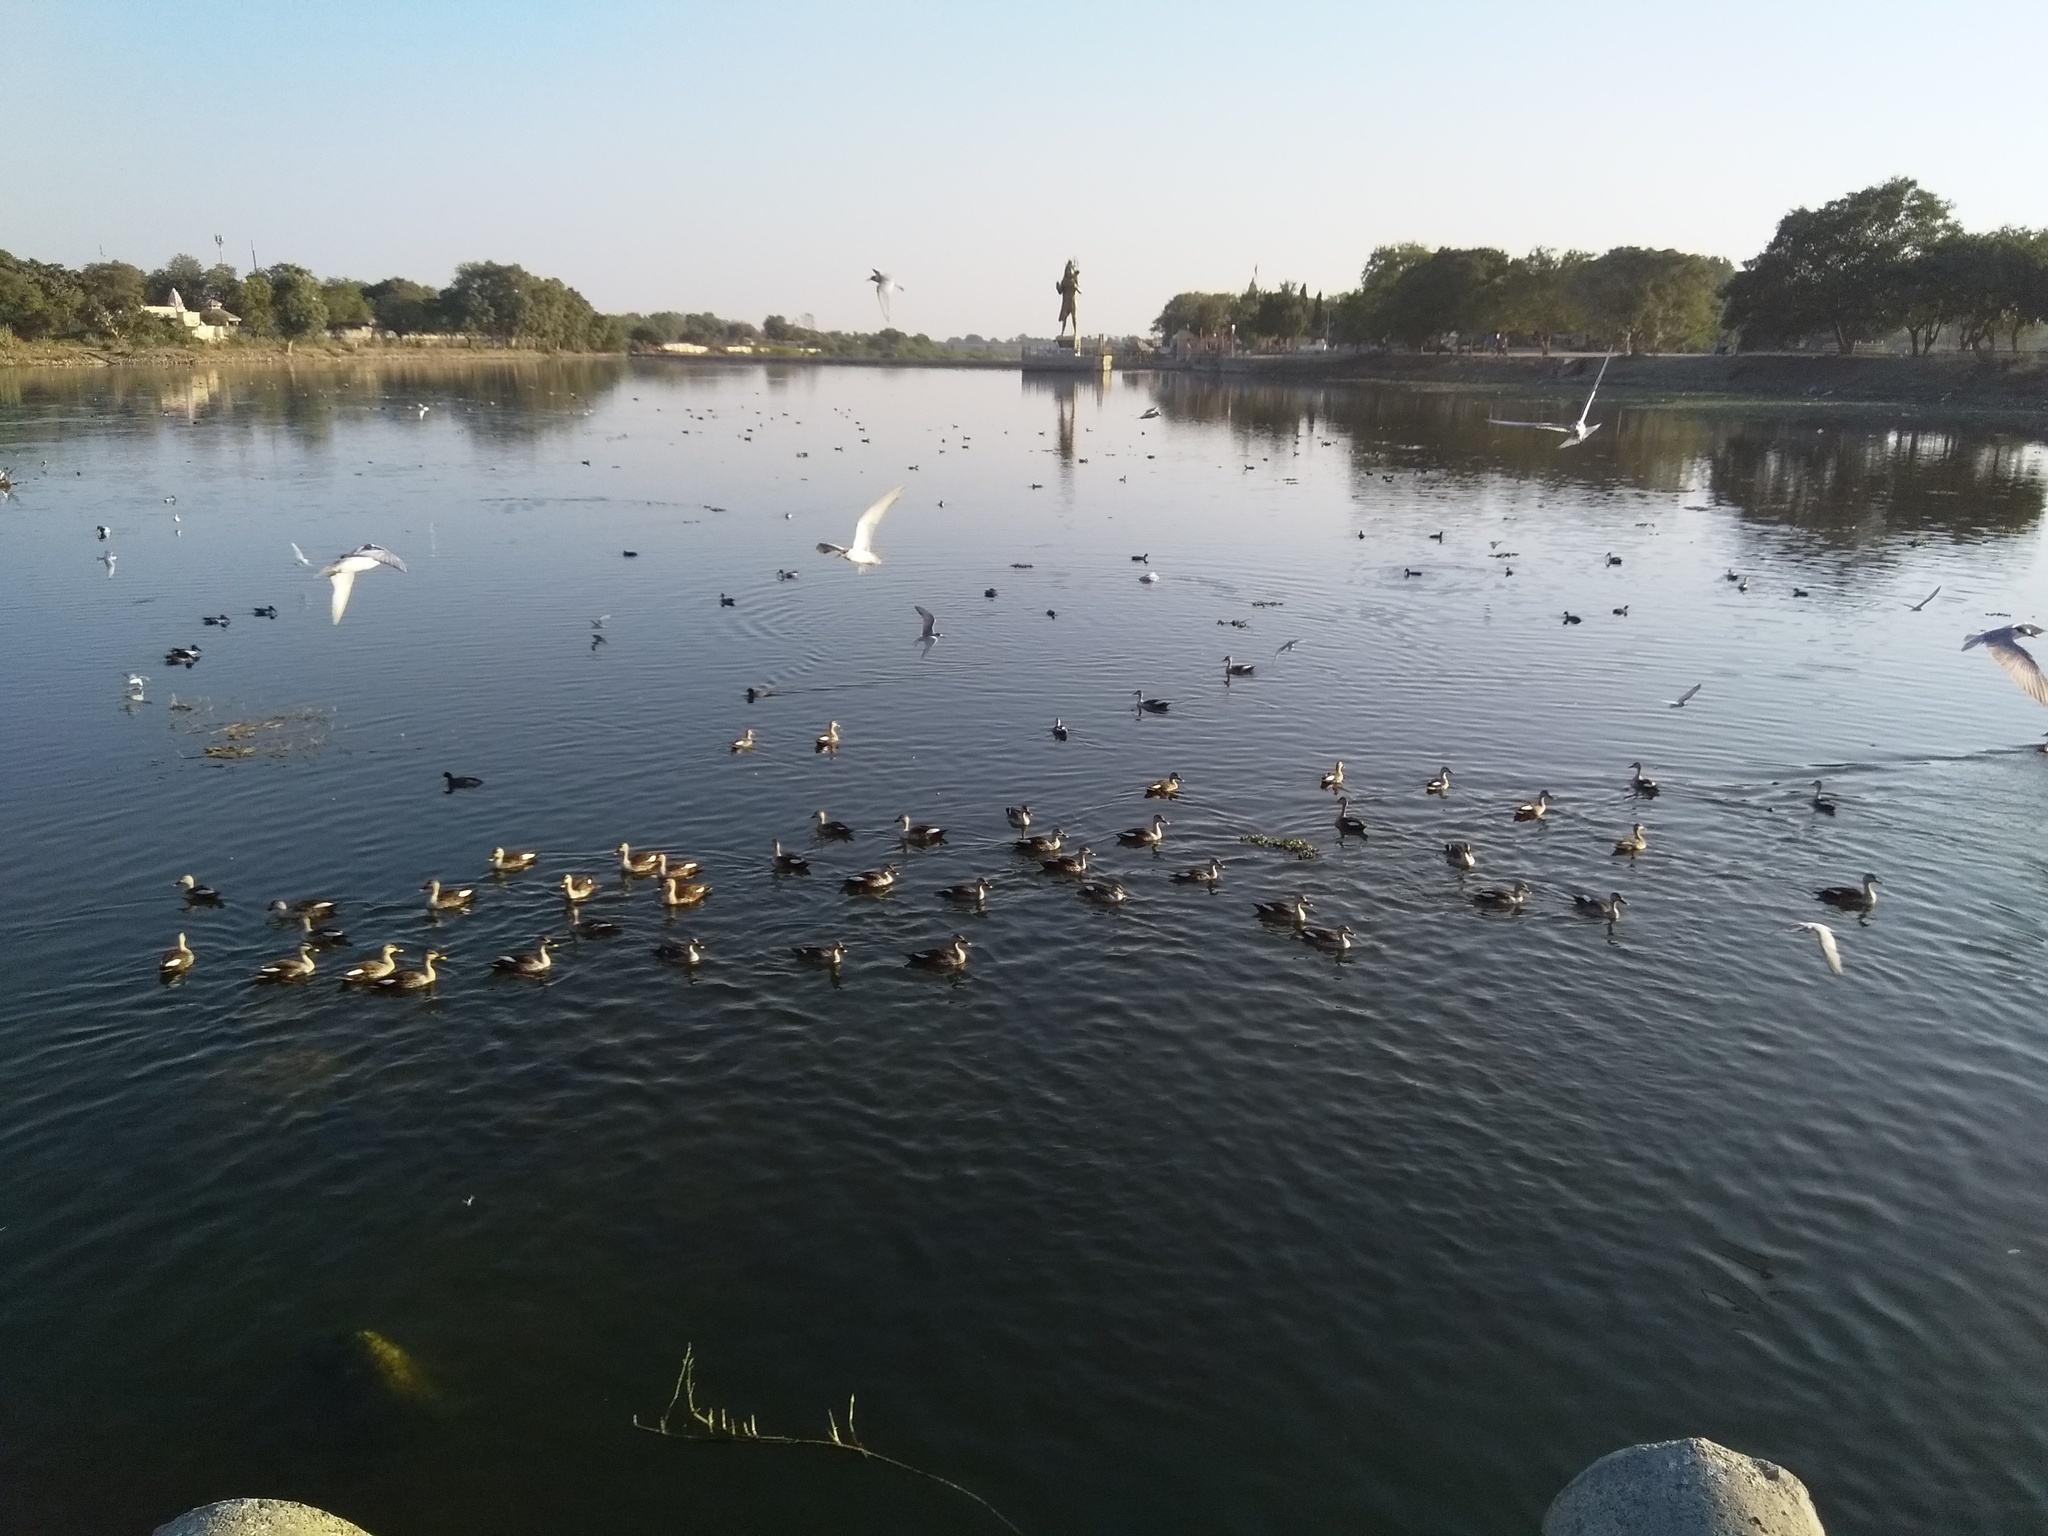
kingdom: Animalia
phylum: Chordata
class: Aves
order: Anseriformes
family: Anatidae
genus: Anas
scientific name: Anas poecilorhyncha
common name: Indian spot-billed duck
